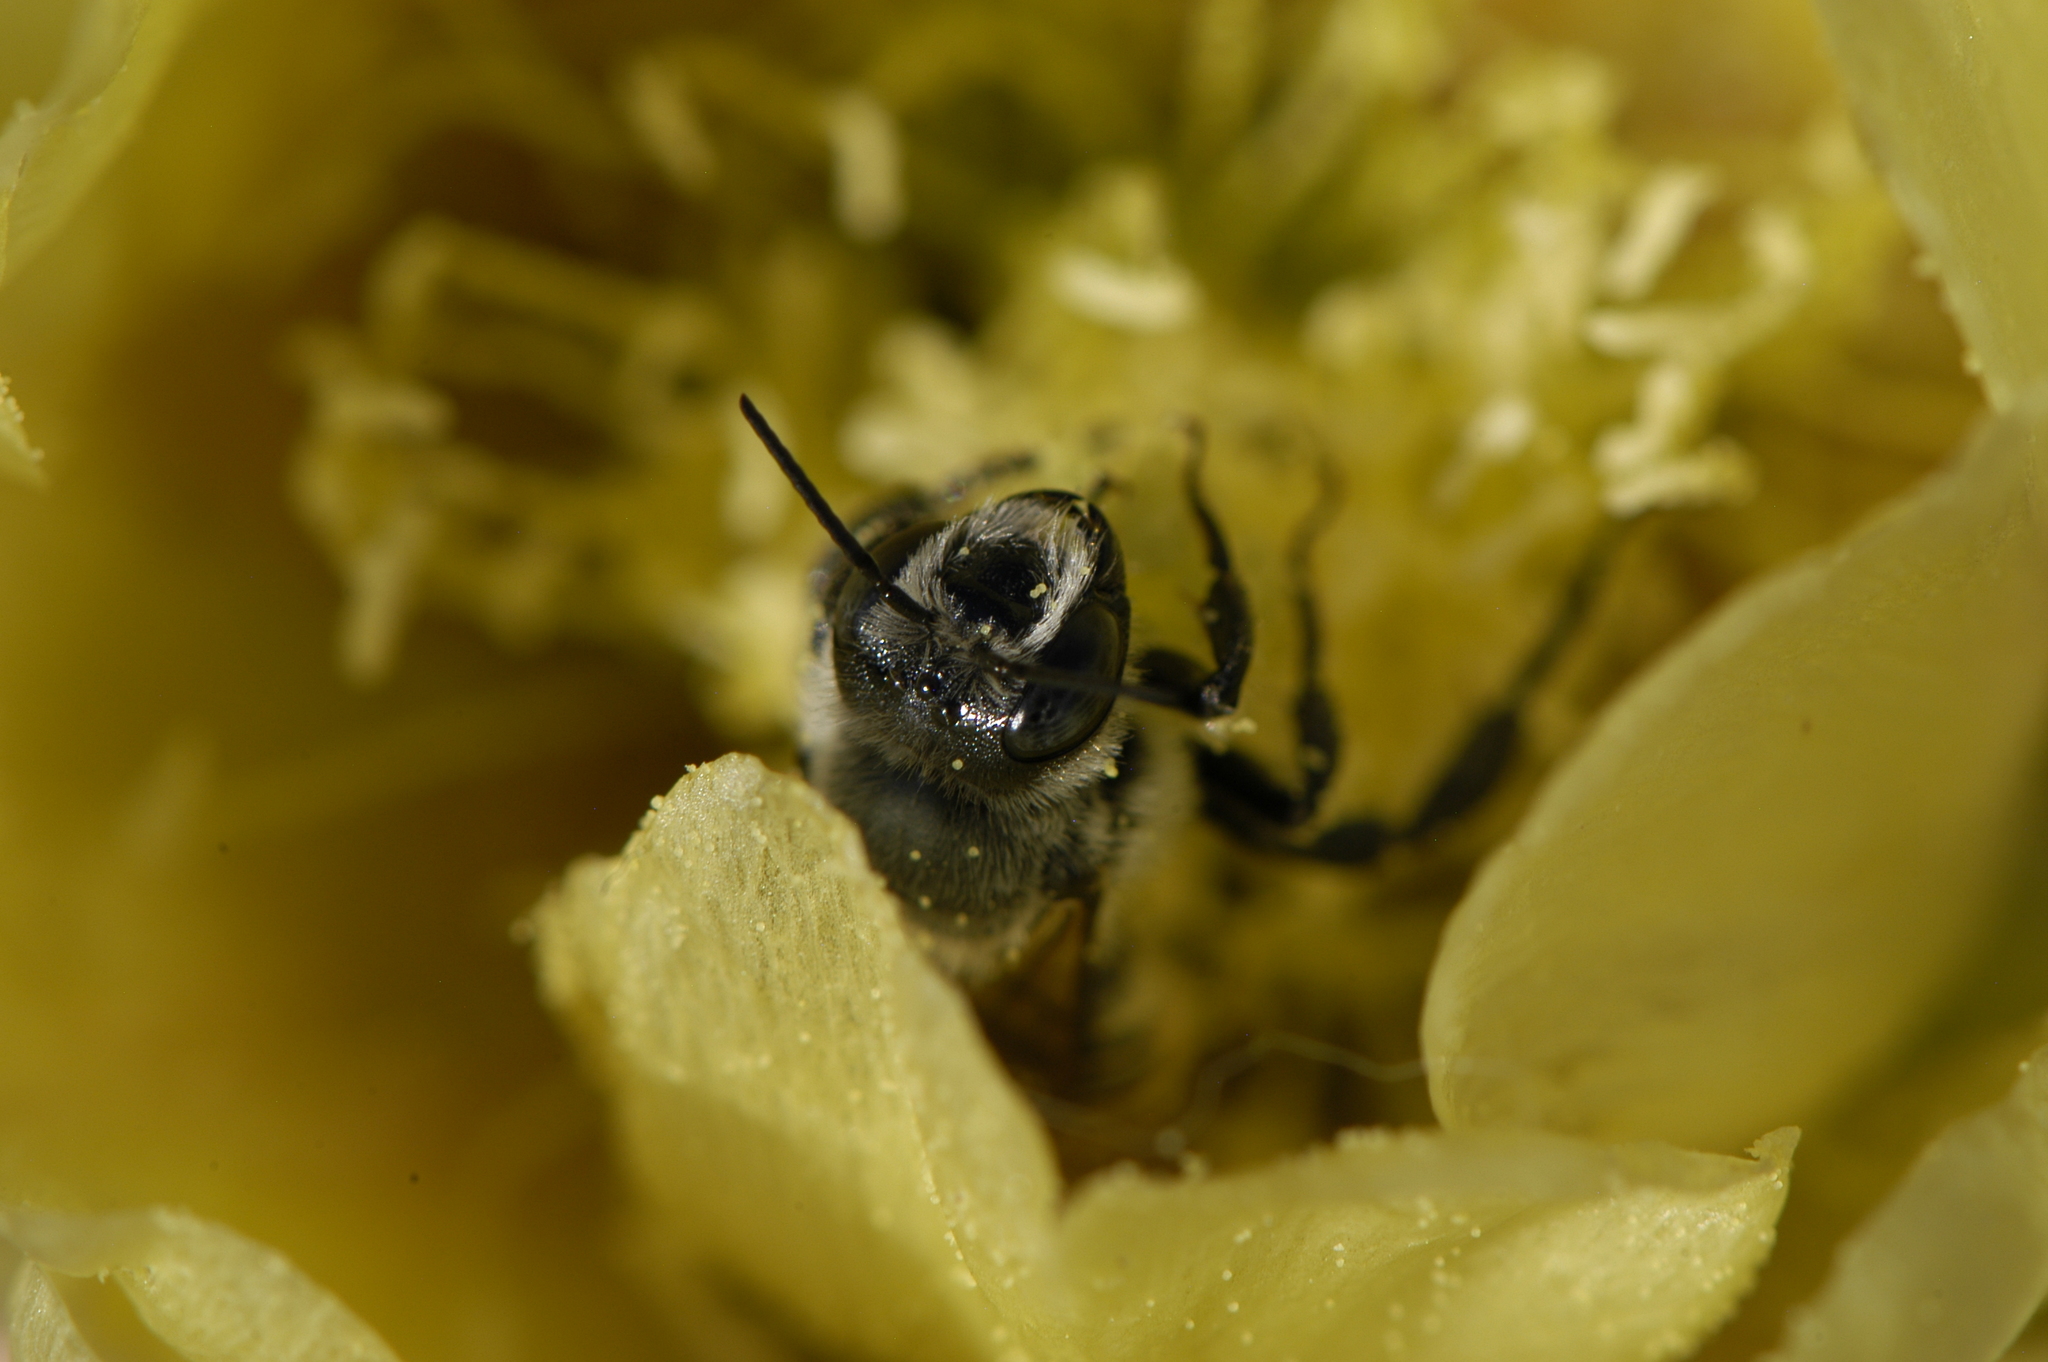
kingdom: Animalia
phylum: Arthropoda
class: Insecta
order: Hymenoptera
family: Megachilidae
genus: Lithurgopsis
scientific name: Lithurgopsis apicalis
